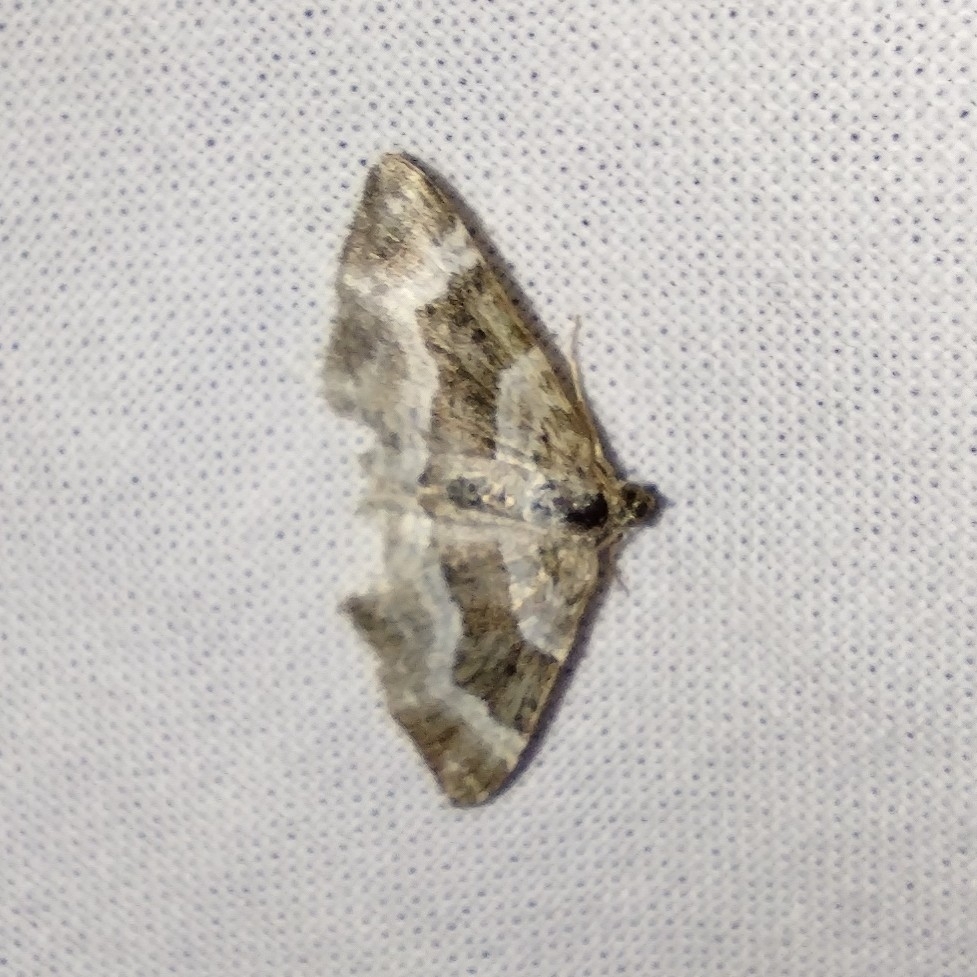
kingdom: Animalia
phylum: Arthropoda
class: Insecta
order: Lepidoptera
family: Geometridae
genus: Epirrhoe
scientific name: Epirrhoe alternata
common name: Common carpet
